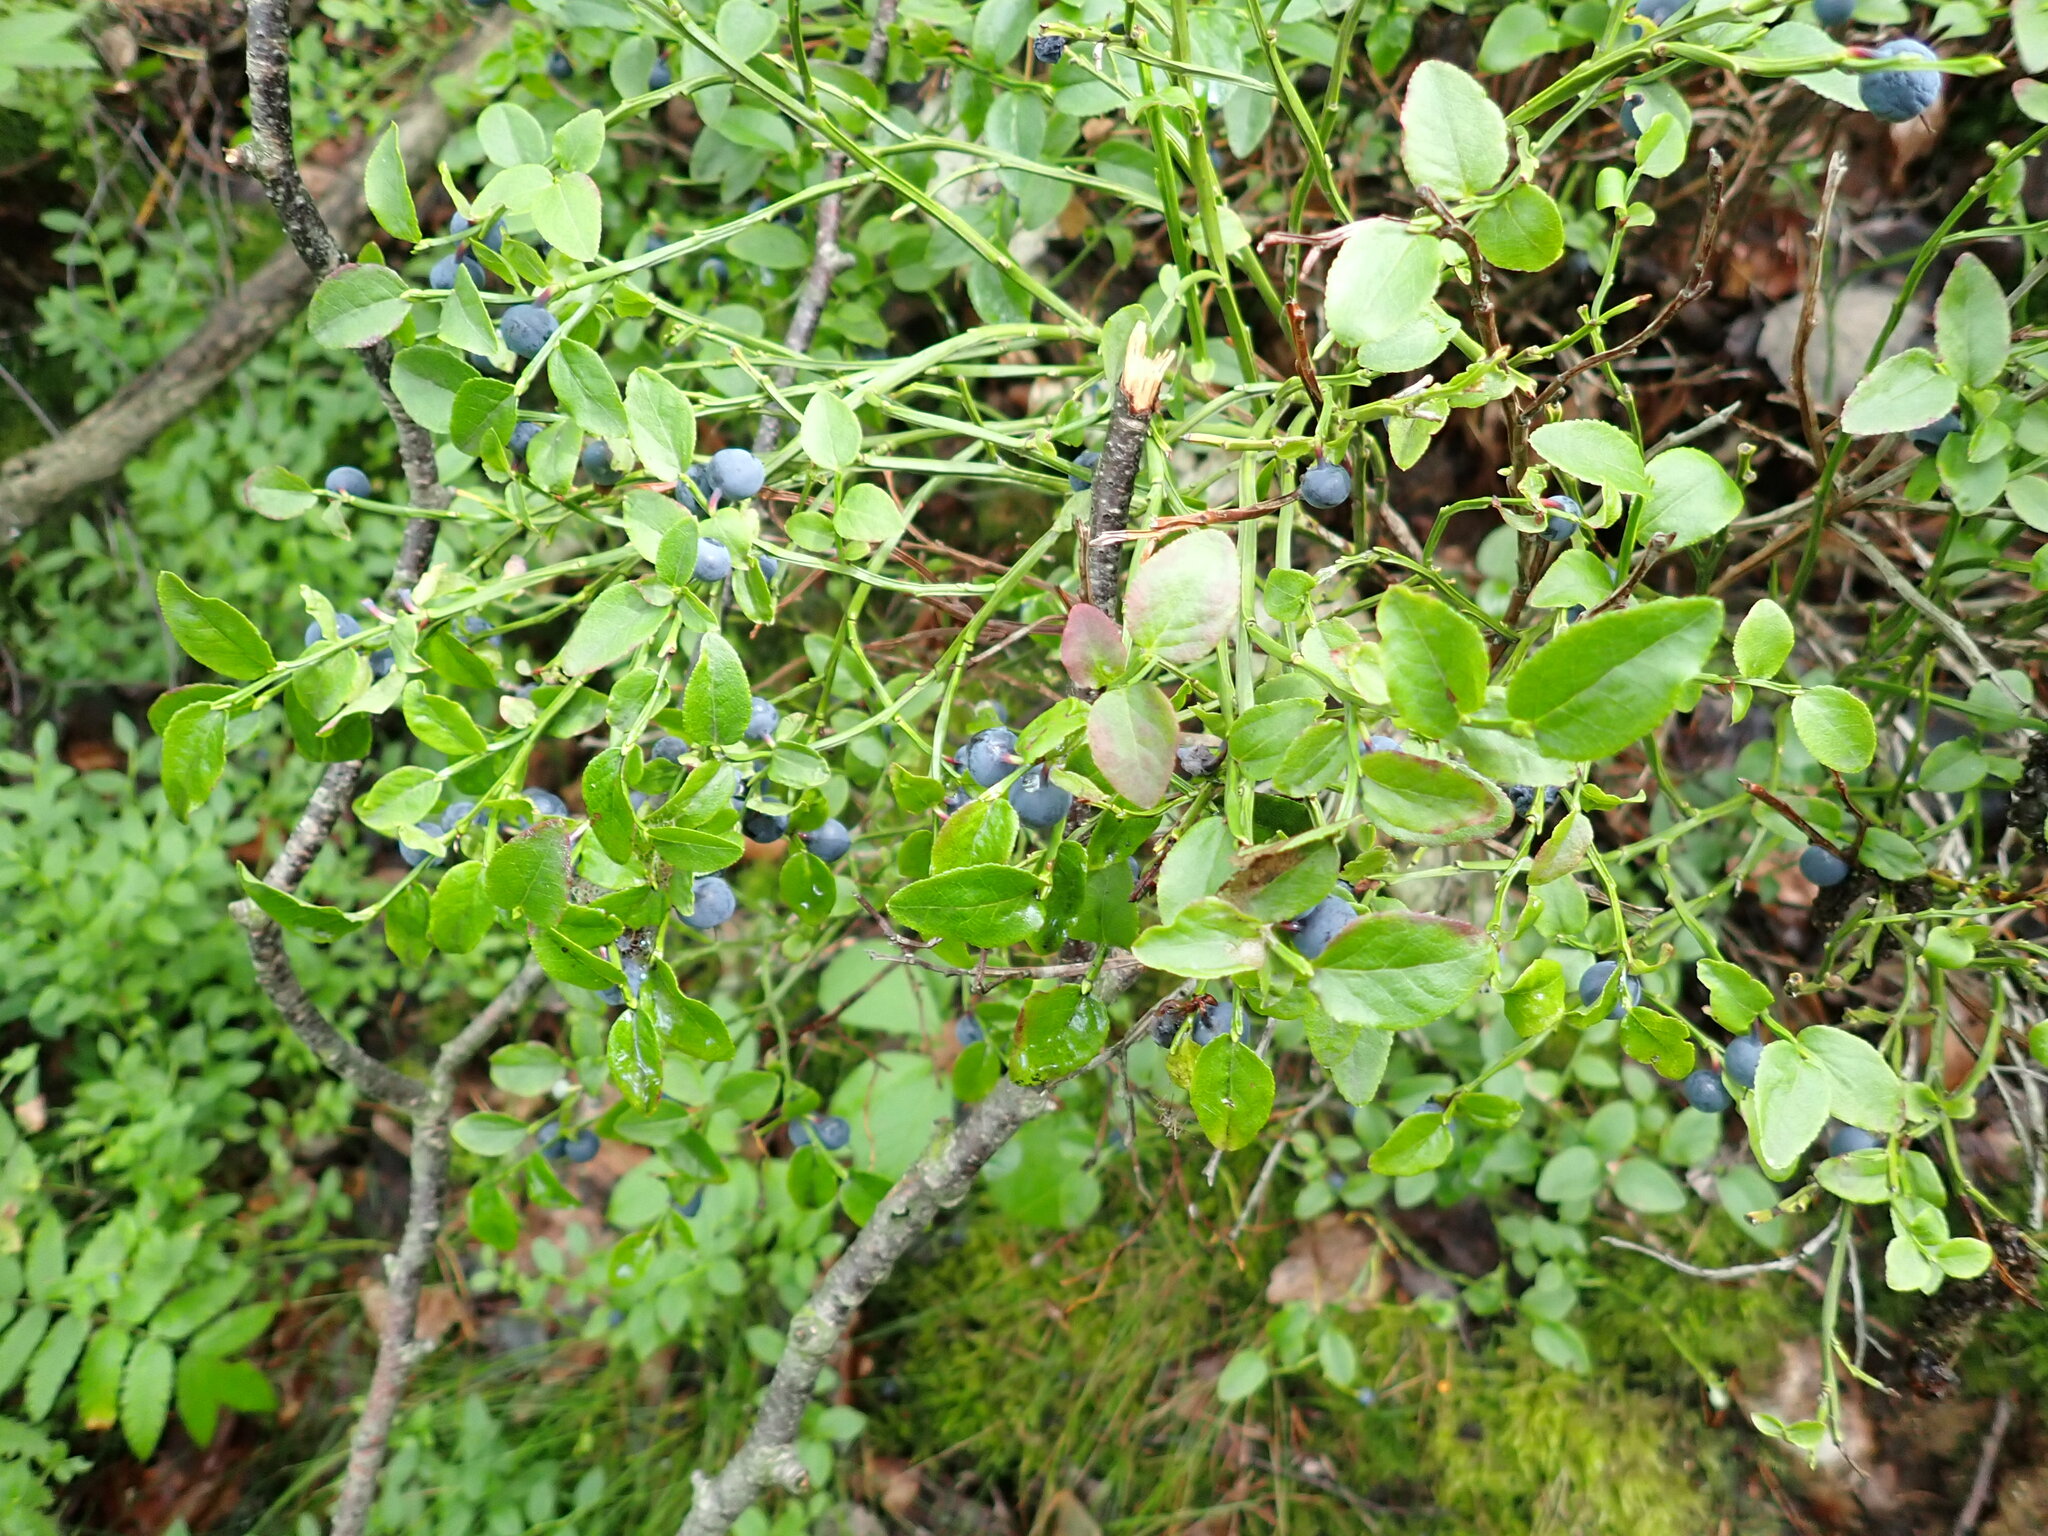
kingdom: Plantae
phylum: Tracheophyta
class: Magnoliopsida
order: Ericales
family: Ericaceae
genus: Vaccinium
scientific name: Vaccinium myrtillus
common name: Bilberry
